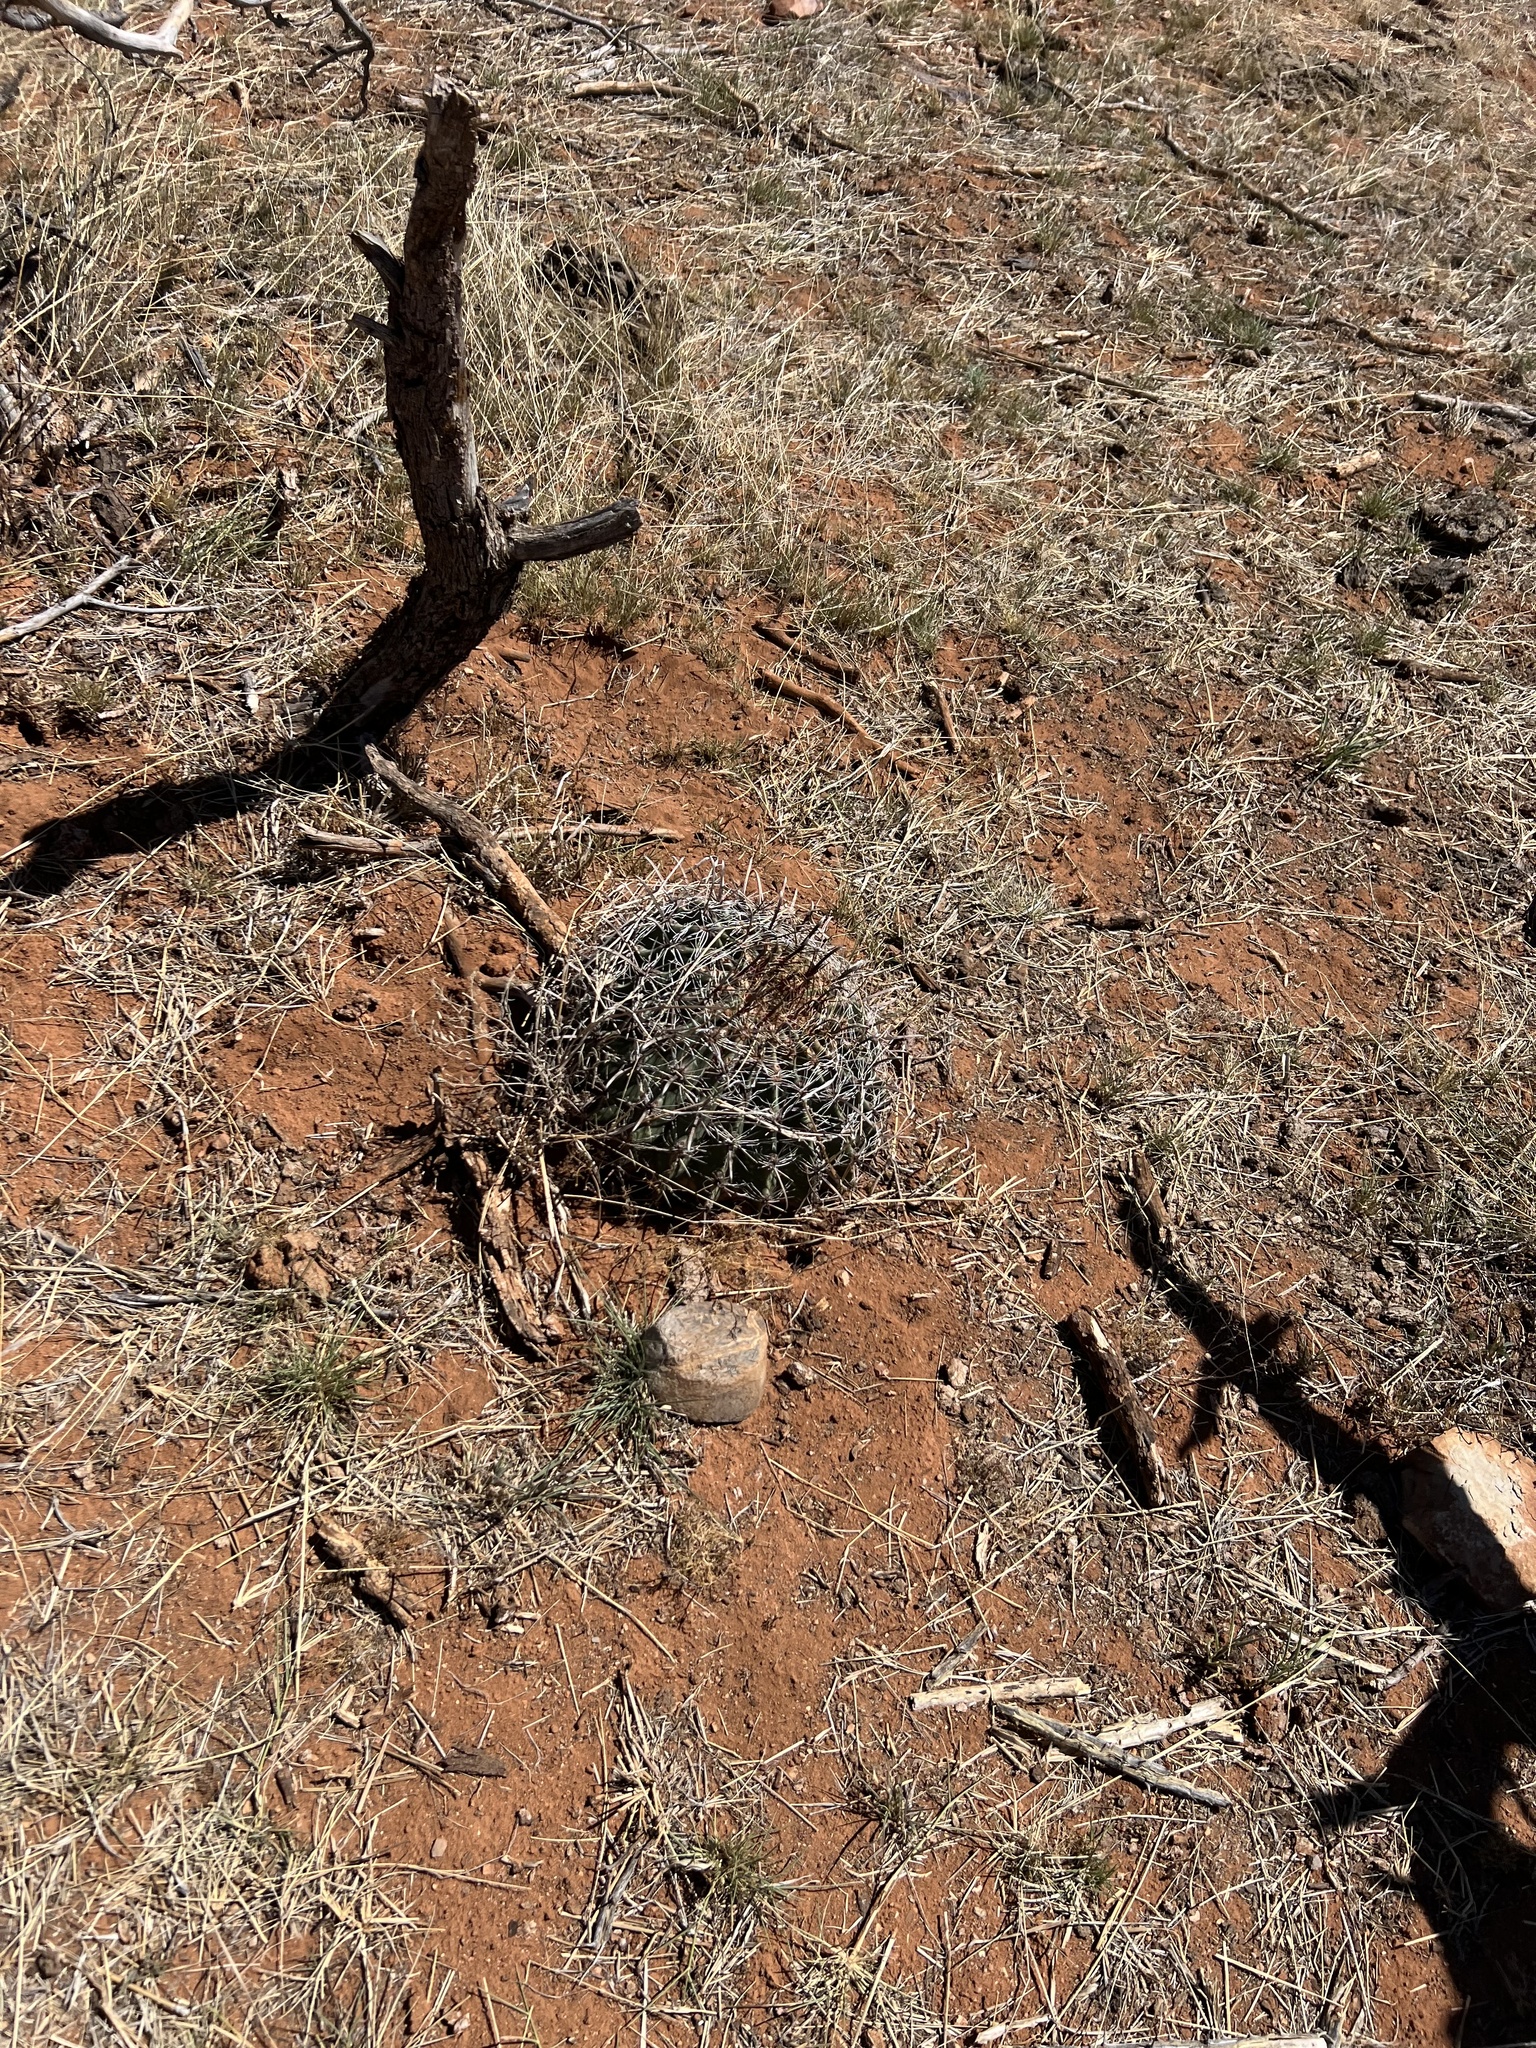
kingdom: Plantae
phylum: Tracheophyta
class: Magnoliopsida
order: Caryophyllales
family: Cactaceae
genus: Ferocactus
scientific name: Ferocactus wislizeni
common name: Candy barrel cactus
